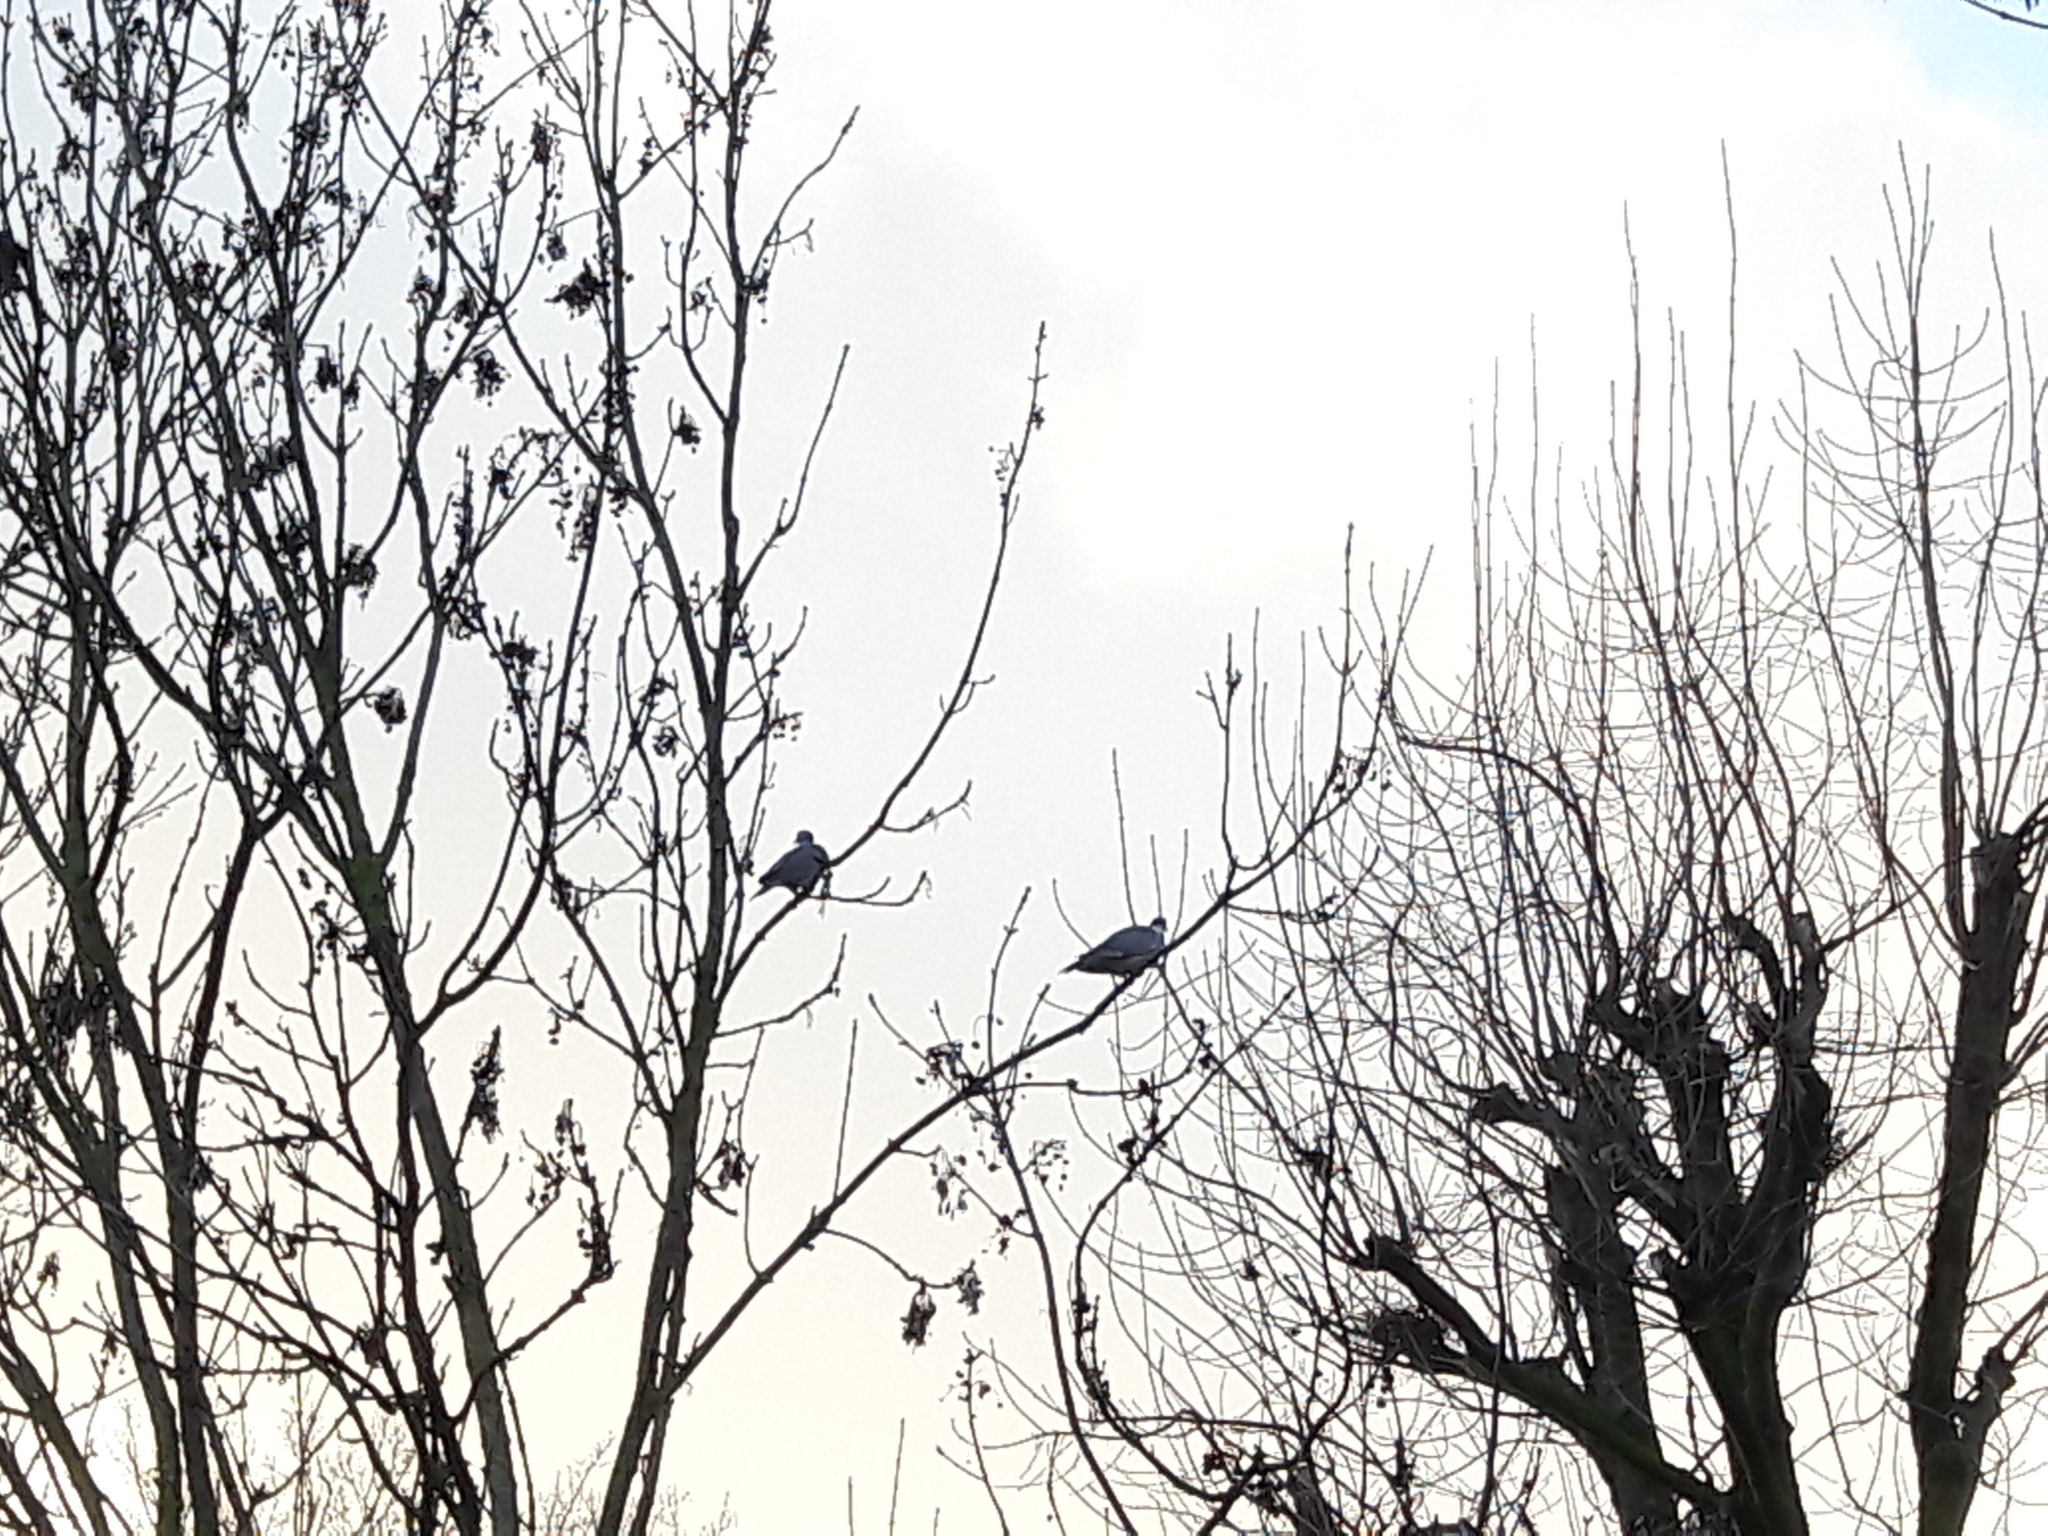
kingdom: Animalia
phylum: Chordata
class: Aves
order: Columbiformes
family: Columbidae
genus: Columba
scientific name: Columba palumbus
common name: Common wood pigeon
